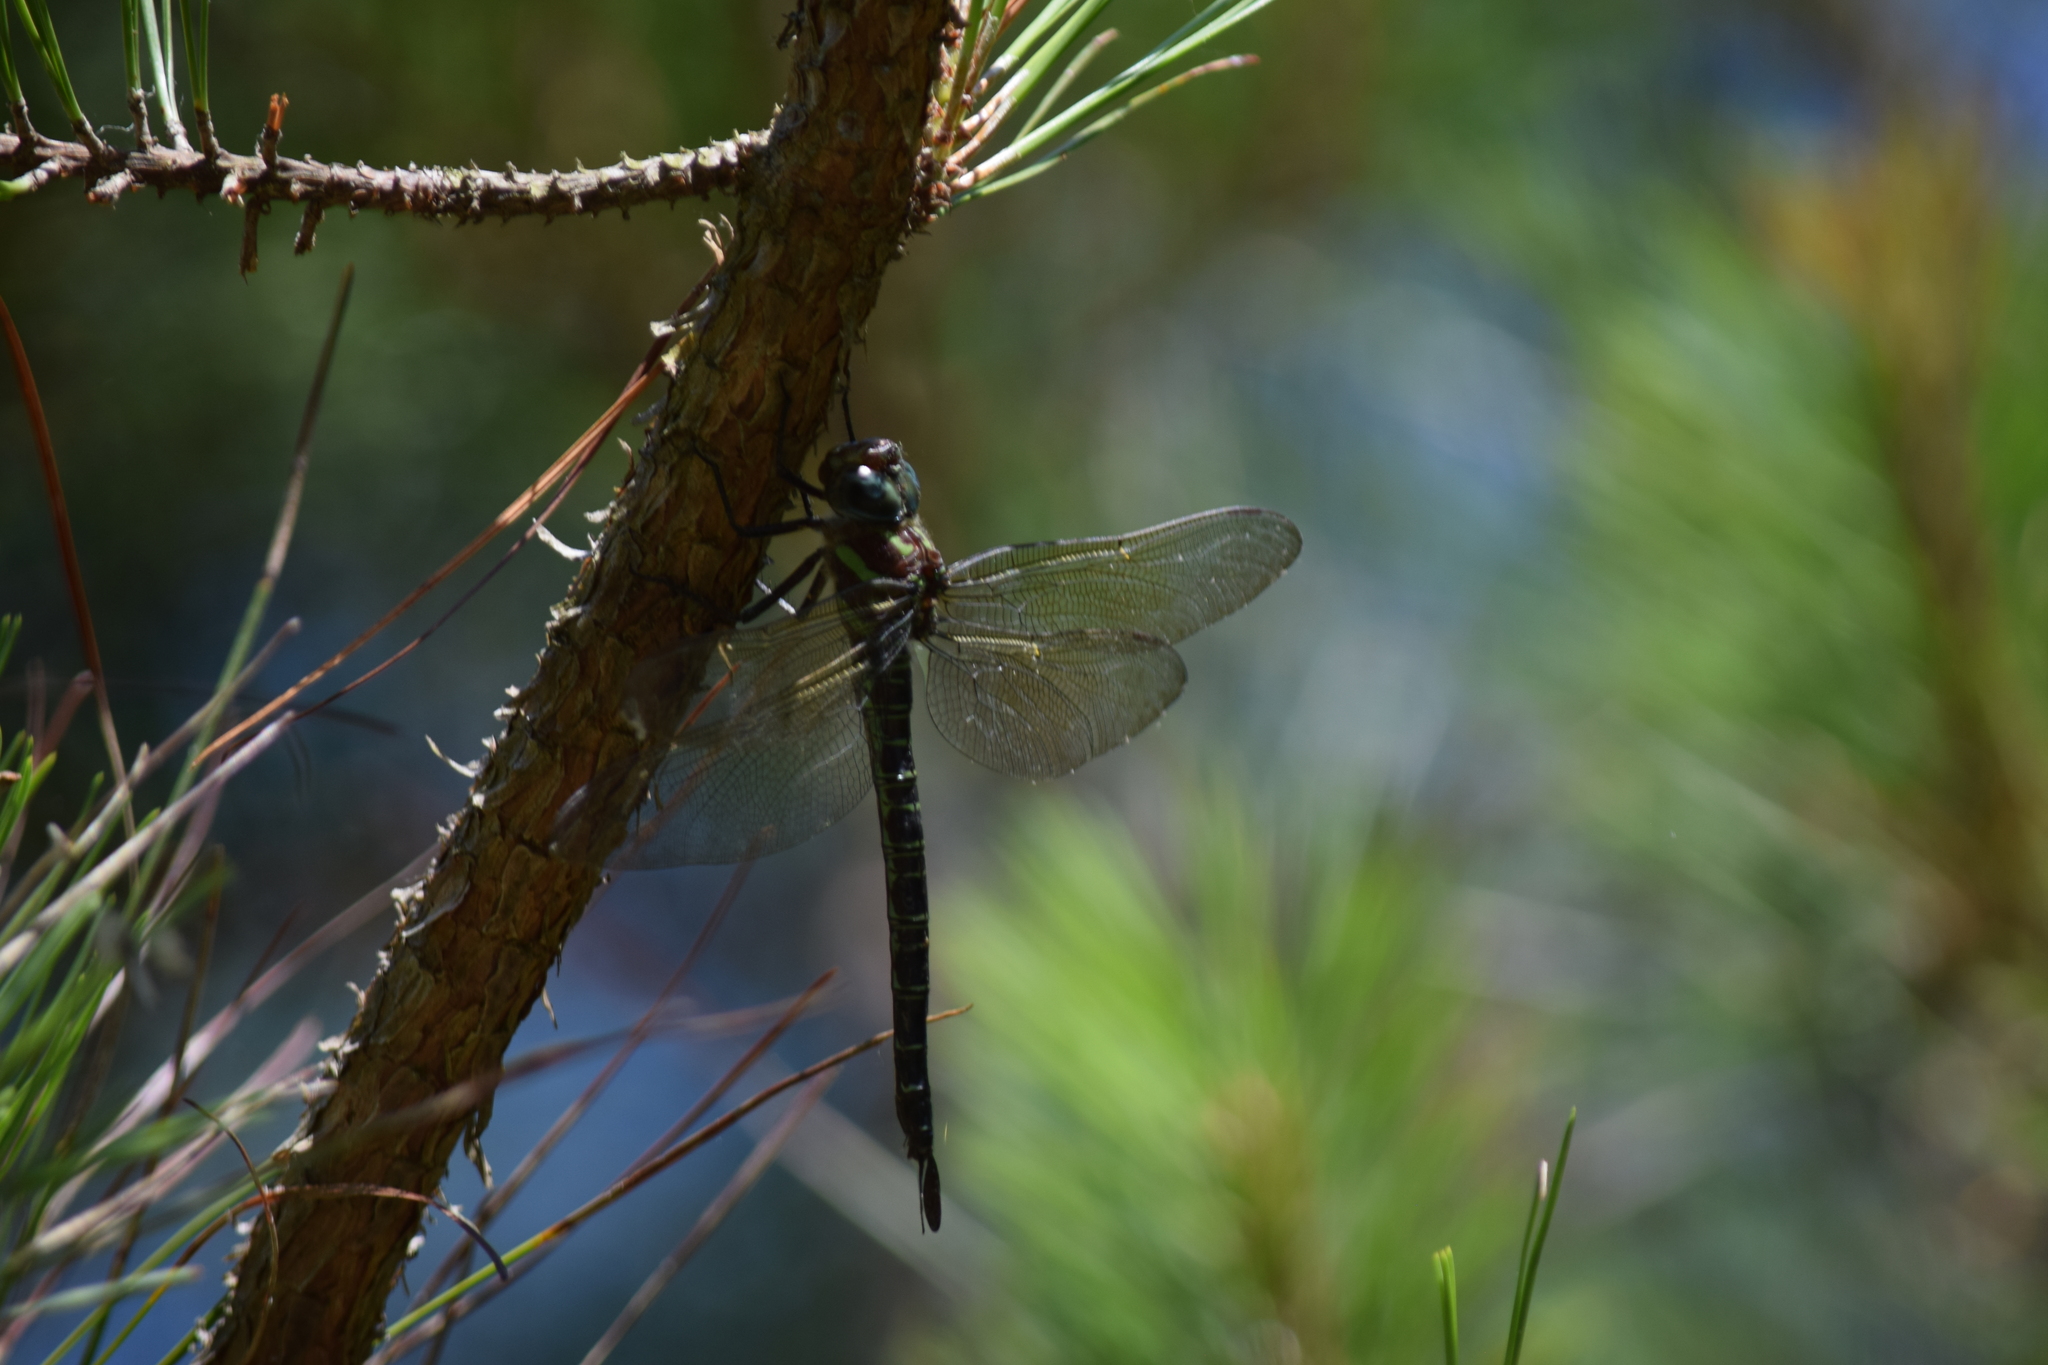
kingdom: Animalia
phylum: Arthropoda
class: Insecta
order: Odonata
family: Aeshnidae
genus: Epiaeschna
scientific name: Epiaeschna heros
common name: Swamp darner
